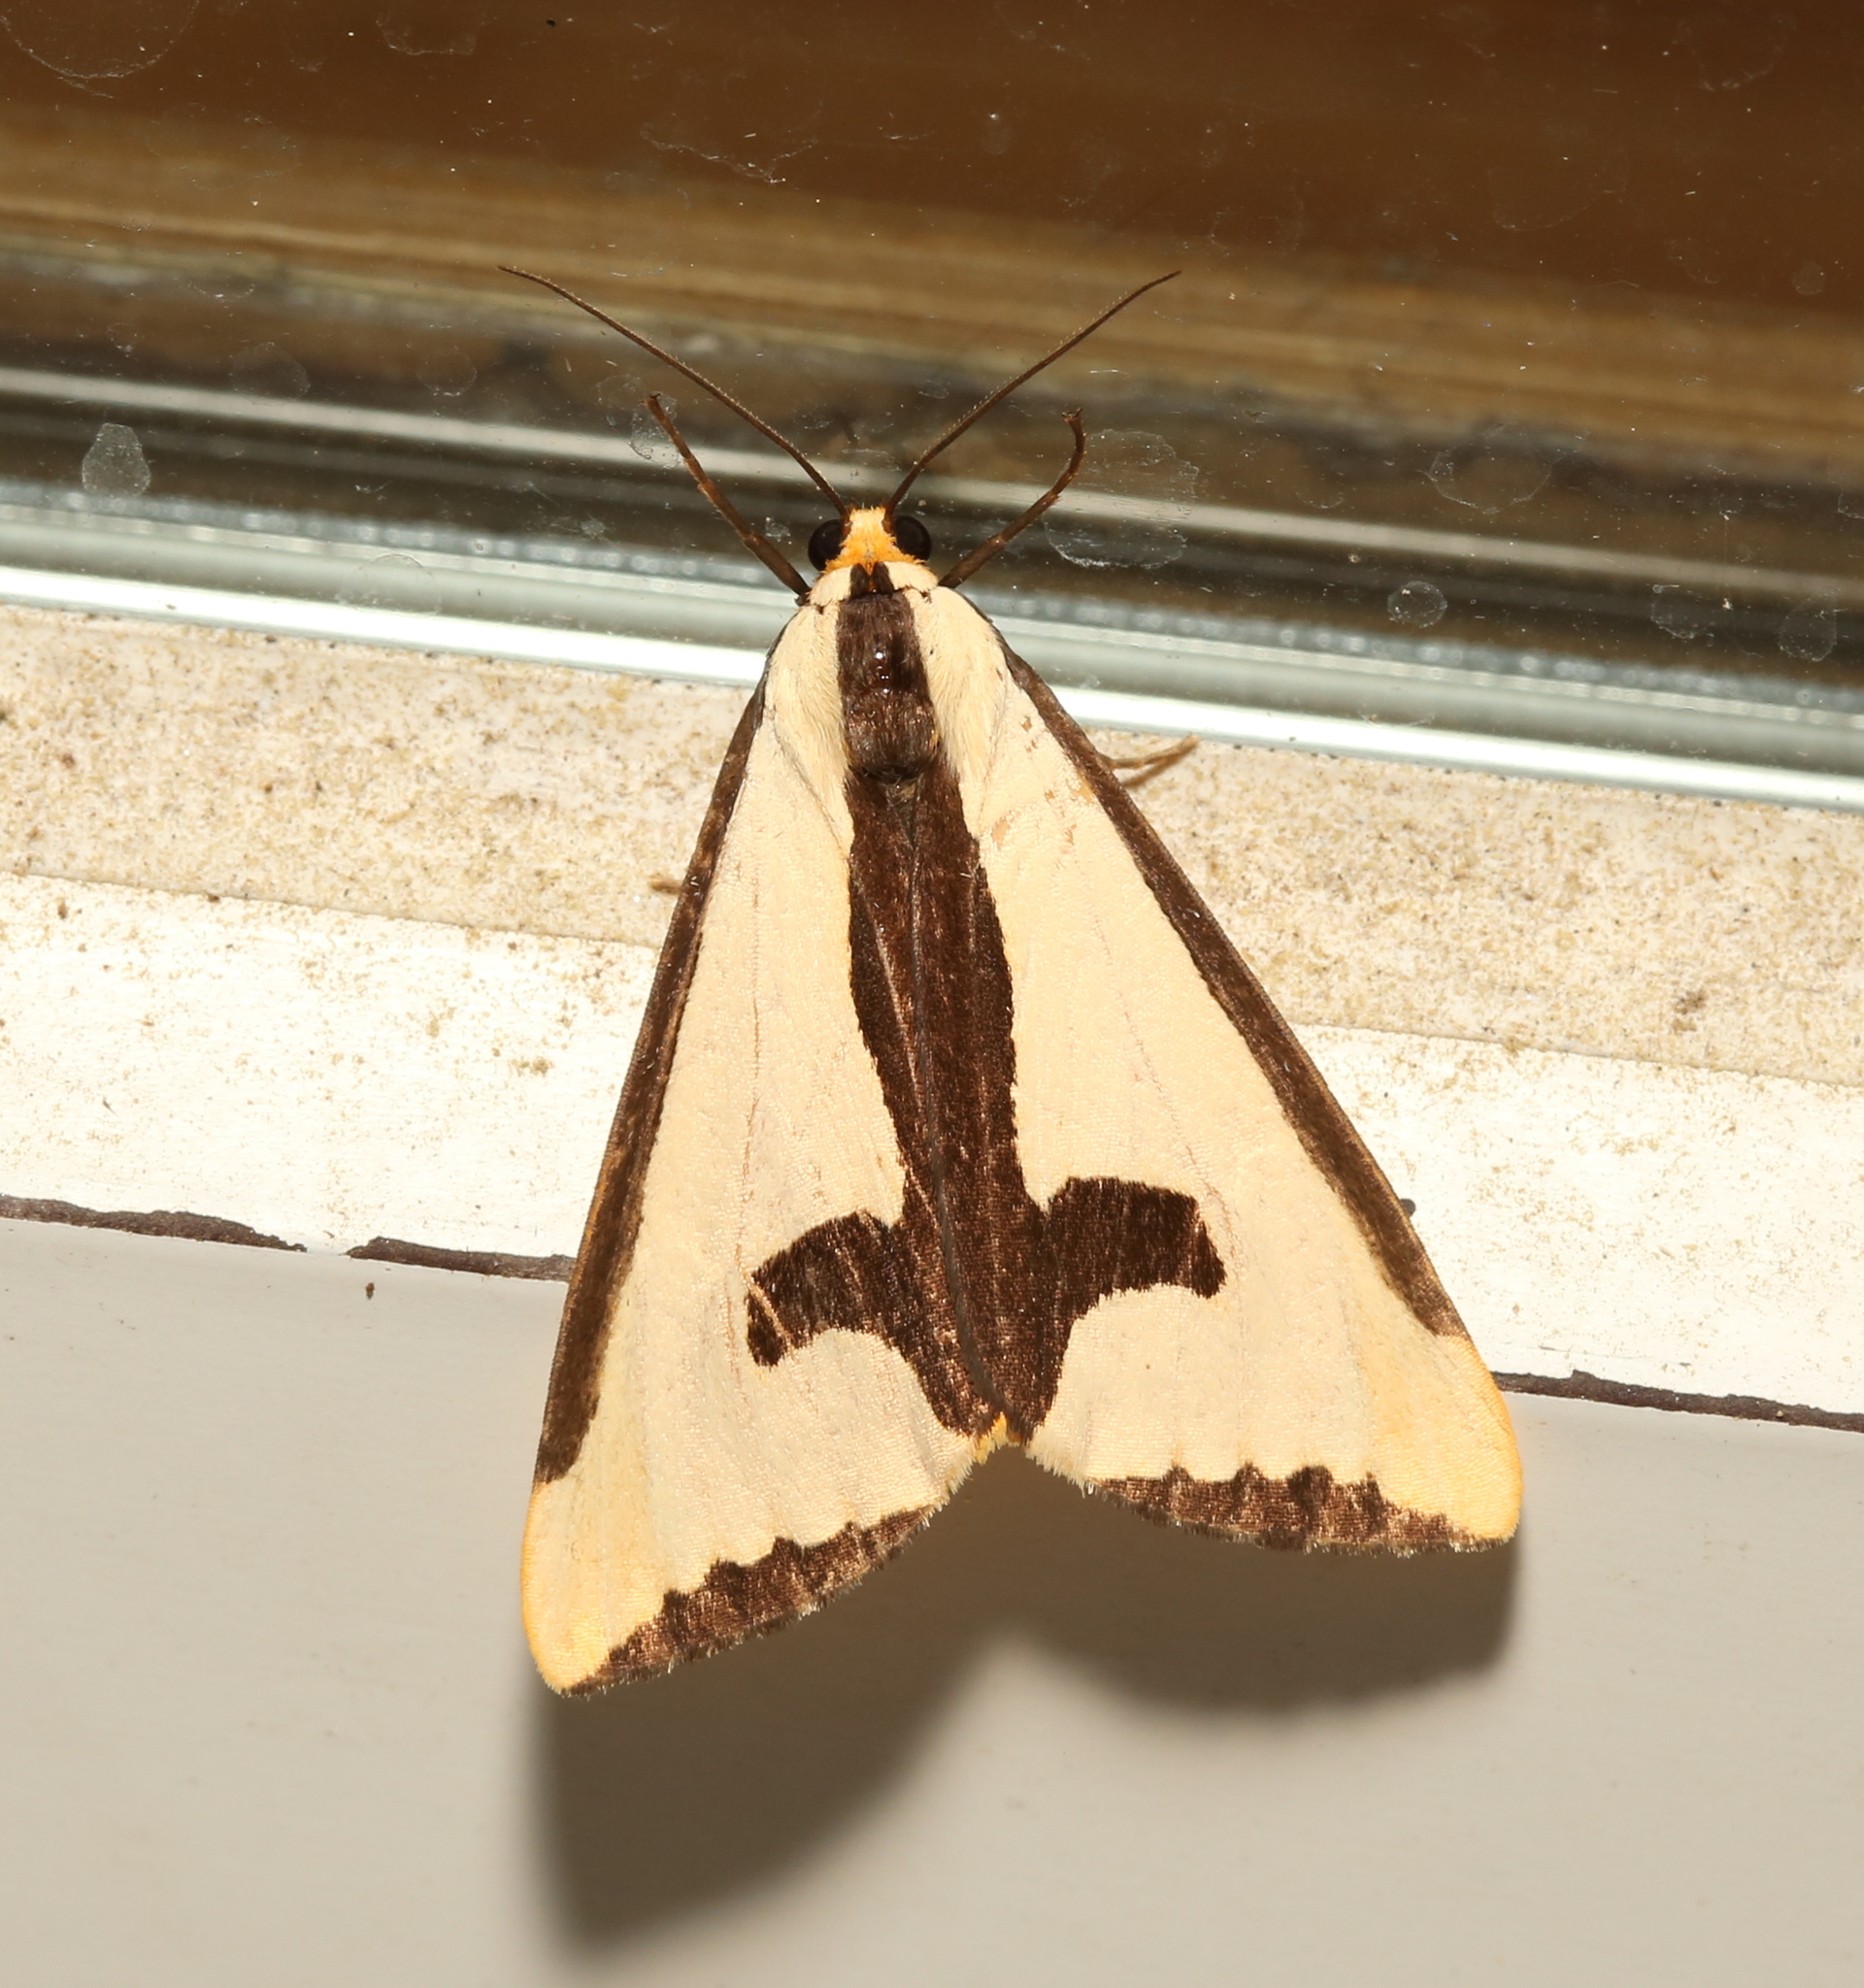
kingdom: Animalia
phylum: Arthropoda
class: Insecta
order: Lepidoptera
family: Erebidae
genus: Haploa
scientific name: Haploa clymene
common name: Clymene moth
